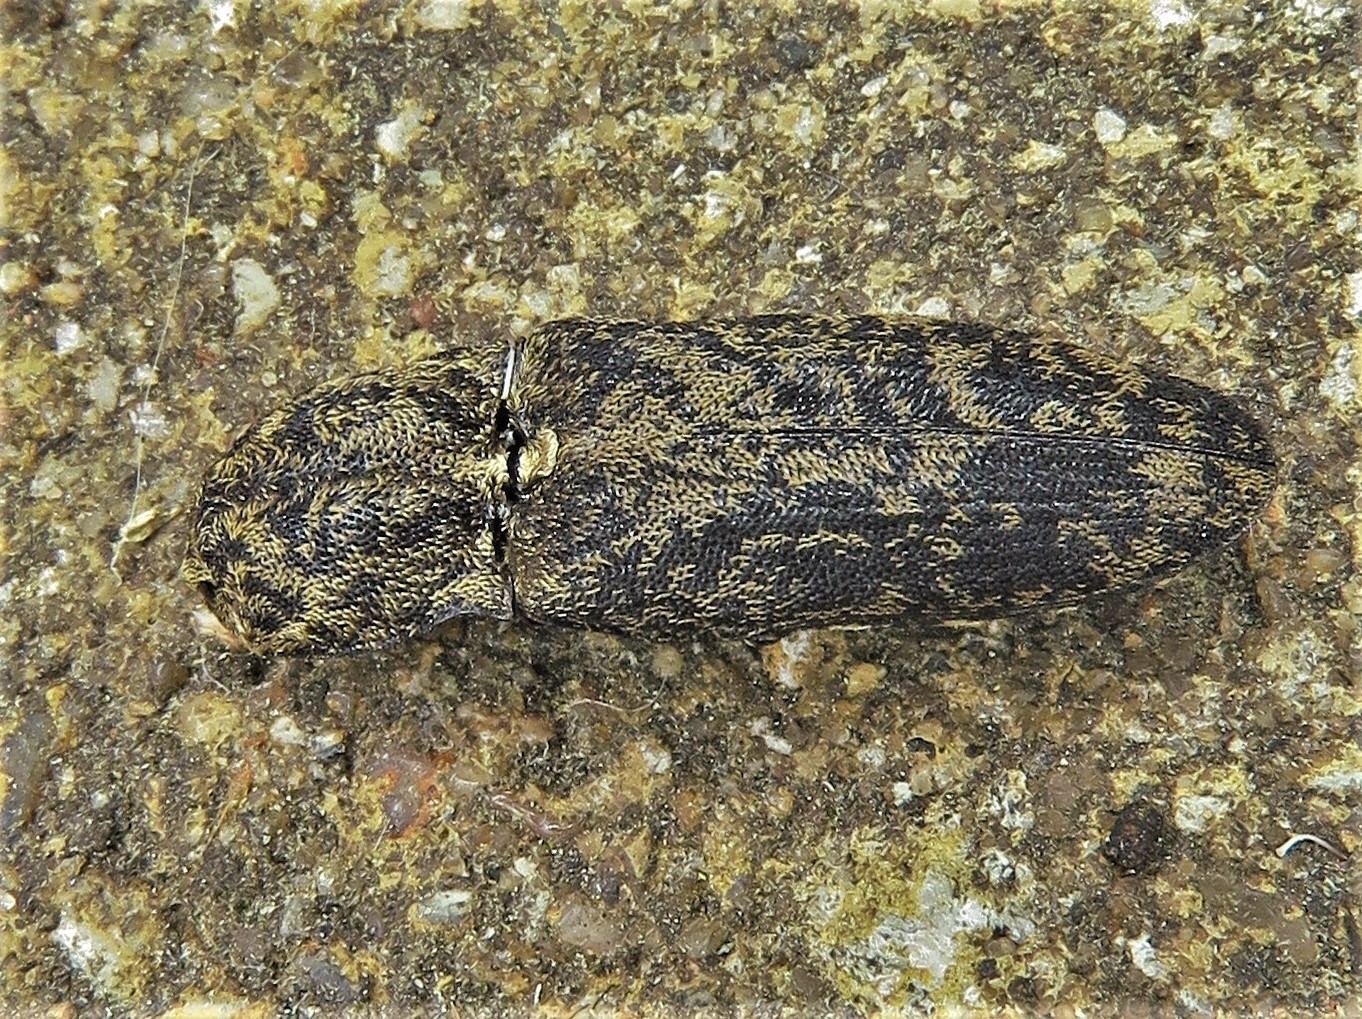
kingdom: Animalia
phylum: Arthropoda
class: Insecta
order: Coleoptera
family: Elateridae
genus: Lacon
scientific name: Lacon marmoratus
